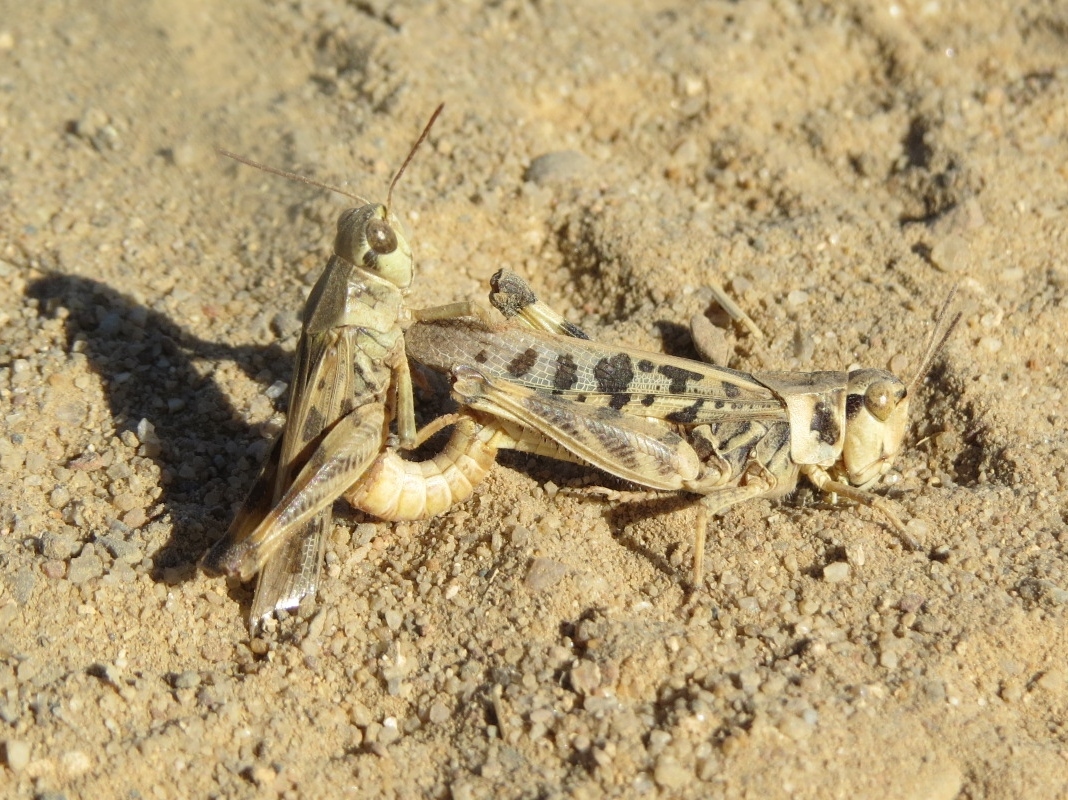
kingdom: Animalia
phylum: Arthropoda
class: Insecta
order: Orthoptera
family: Acrididae
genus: Camnula
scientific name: Camnula pellucida
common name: Clear-winged grasshopper
